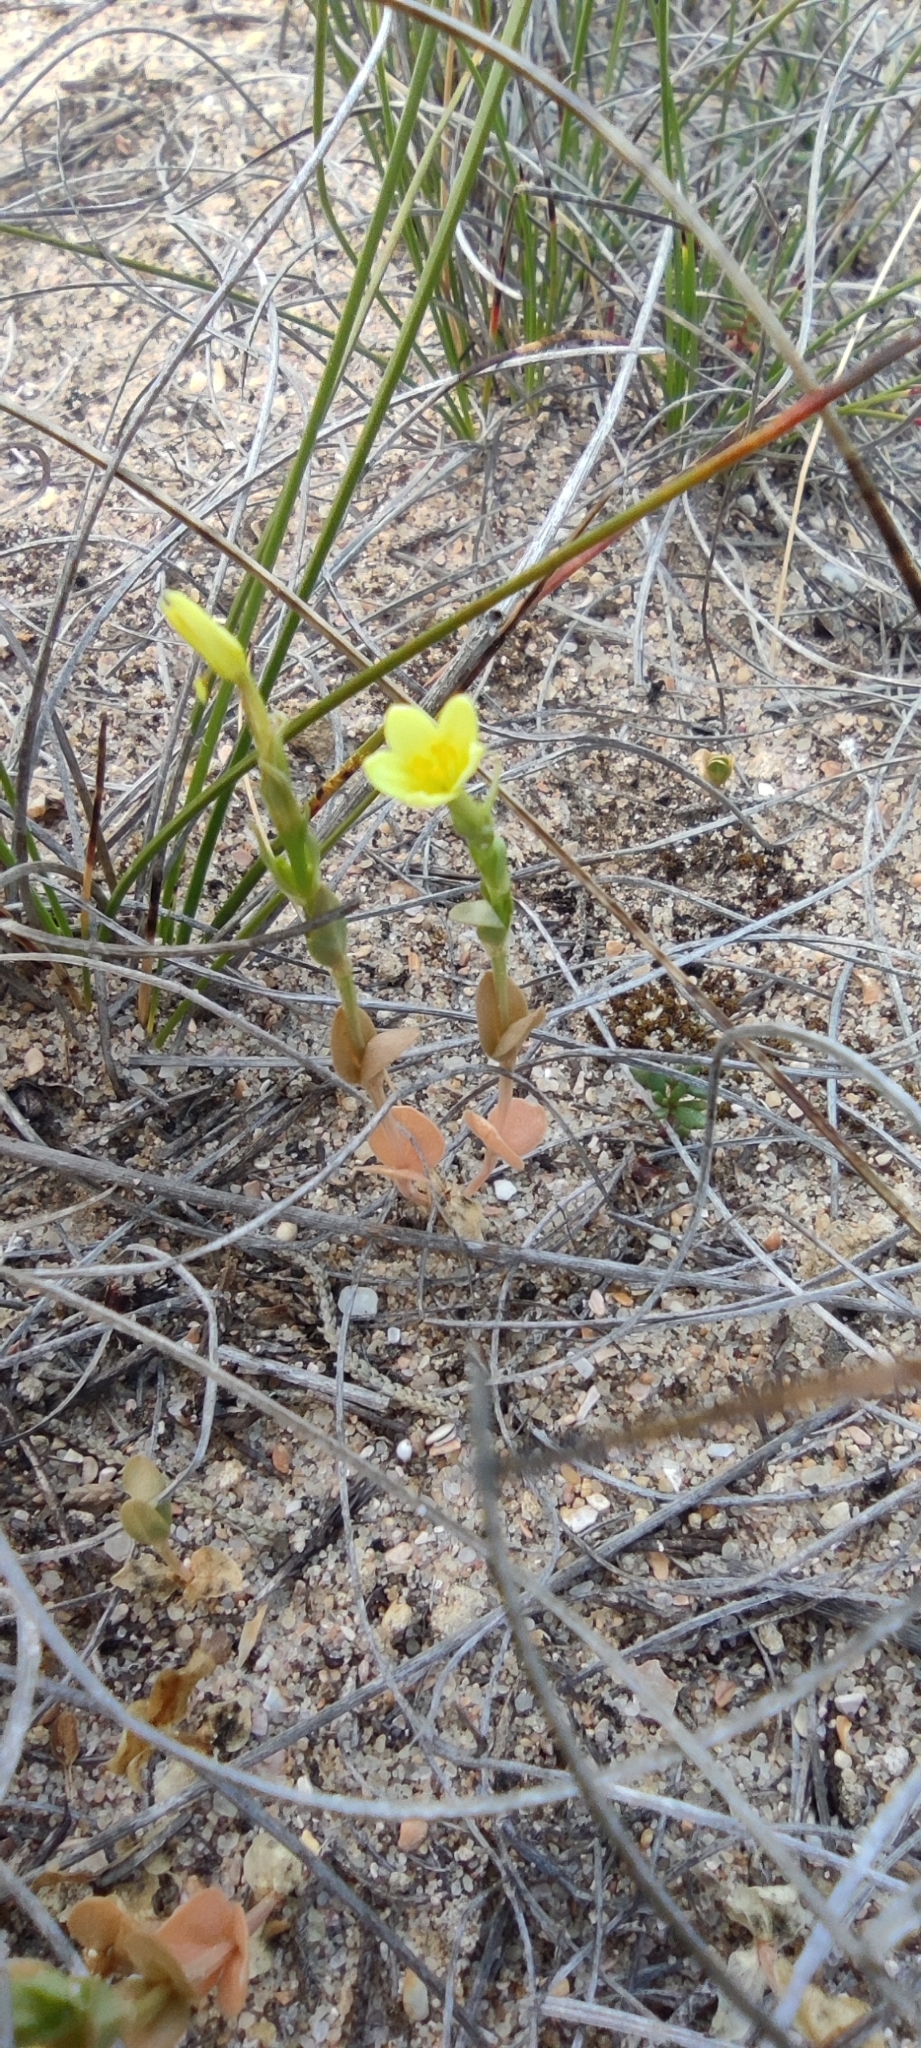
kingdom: Plantae
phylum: Tracheophyta
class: Magnoliopsida
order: Gentianales
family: Gentianaceae
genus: Centaurium
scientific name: Centaurium maritimum
